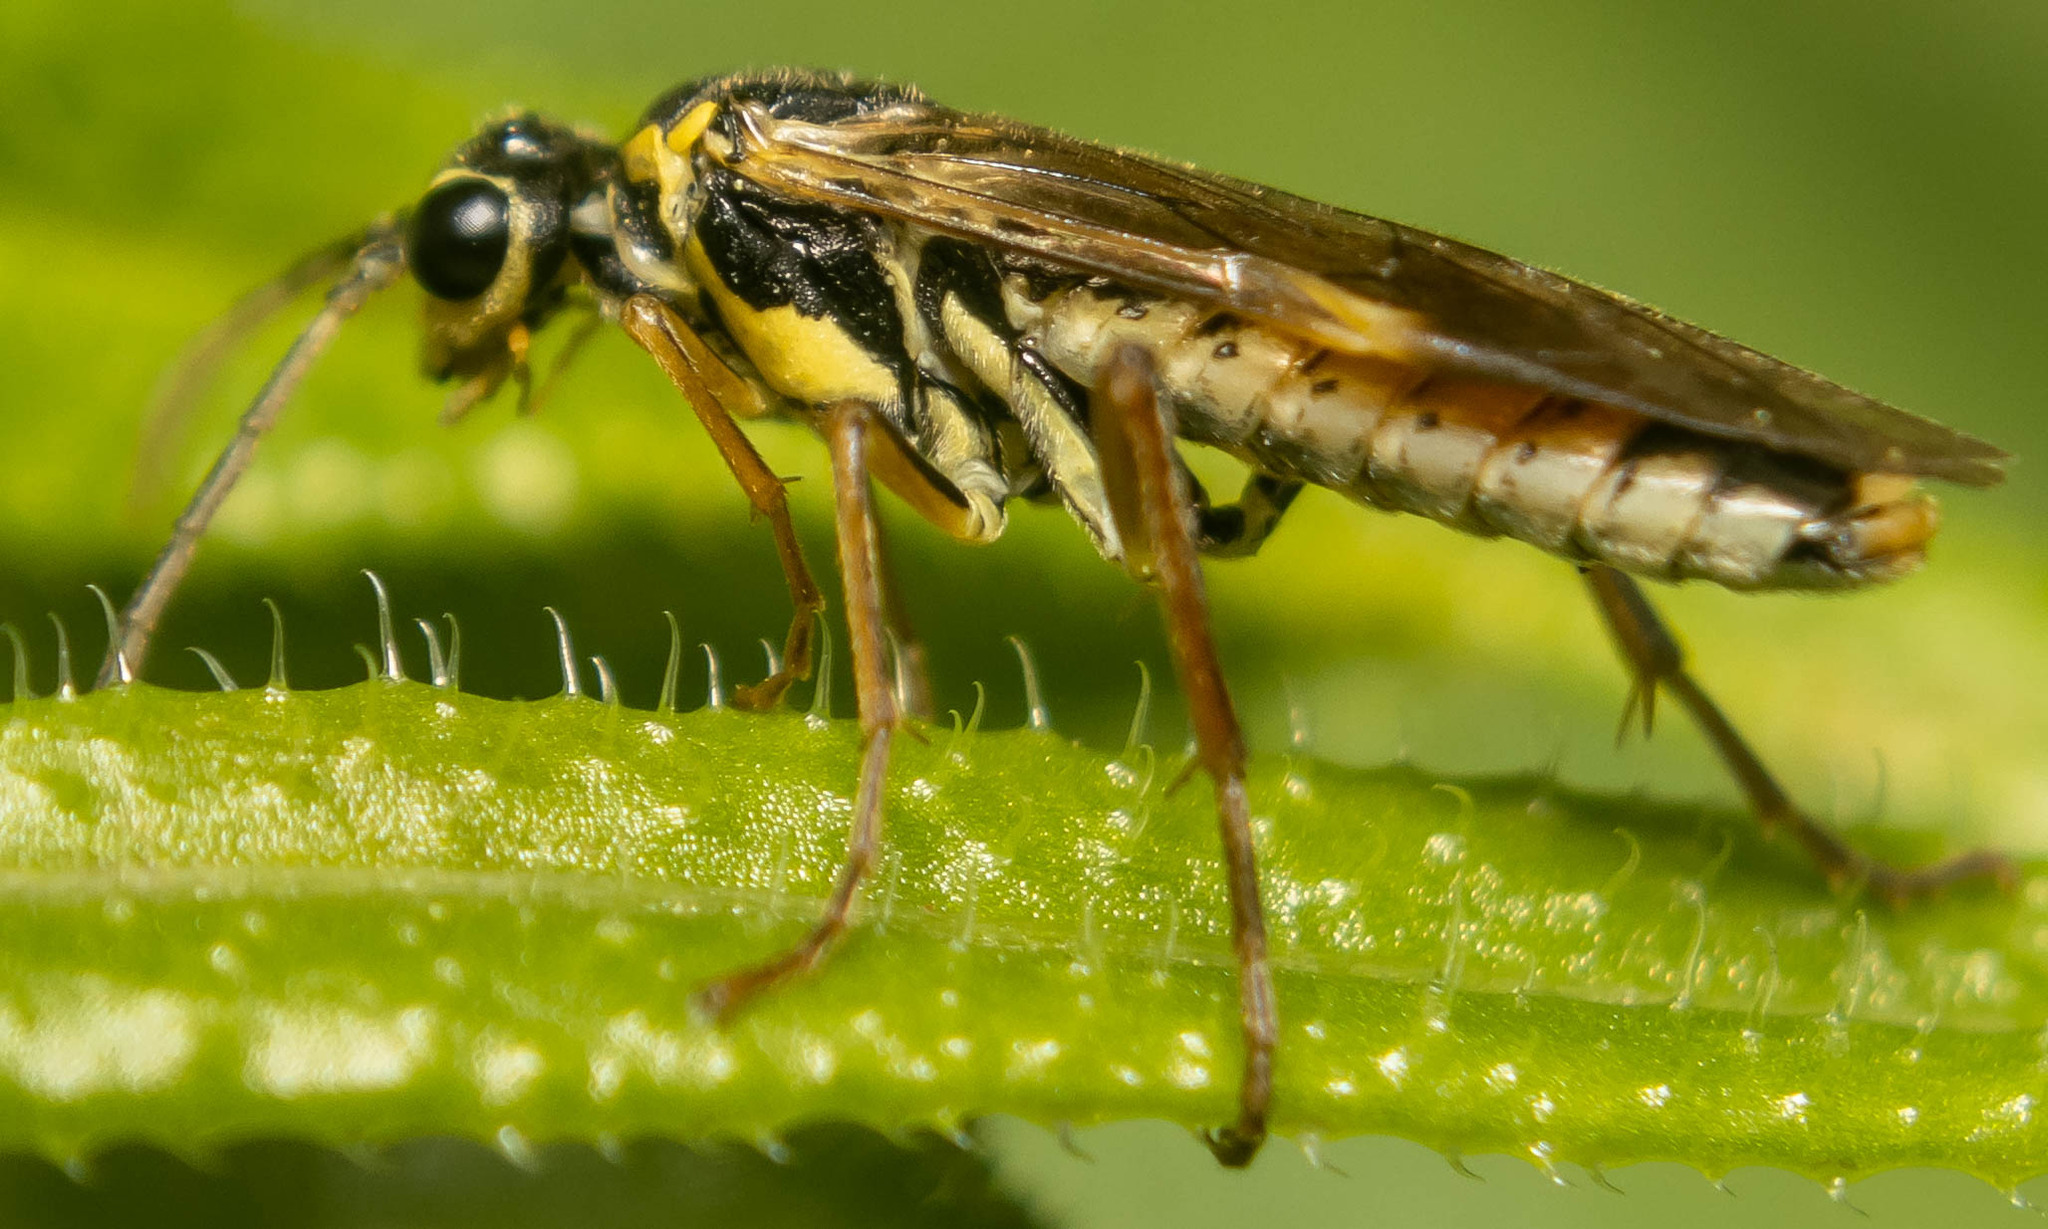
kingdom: Animalia
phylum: Arthropoda
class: Insecta
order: Hymenoptera
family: Tenthredinidae
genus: Aglaostigma
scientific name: Aglaostigma fulvipes
